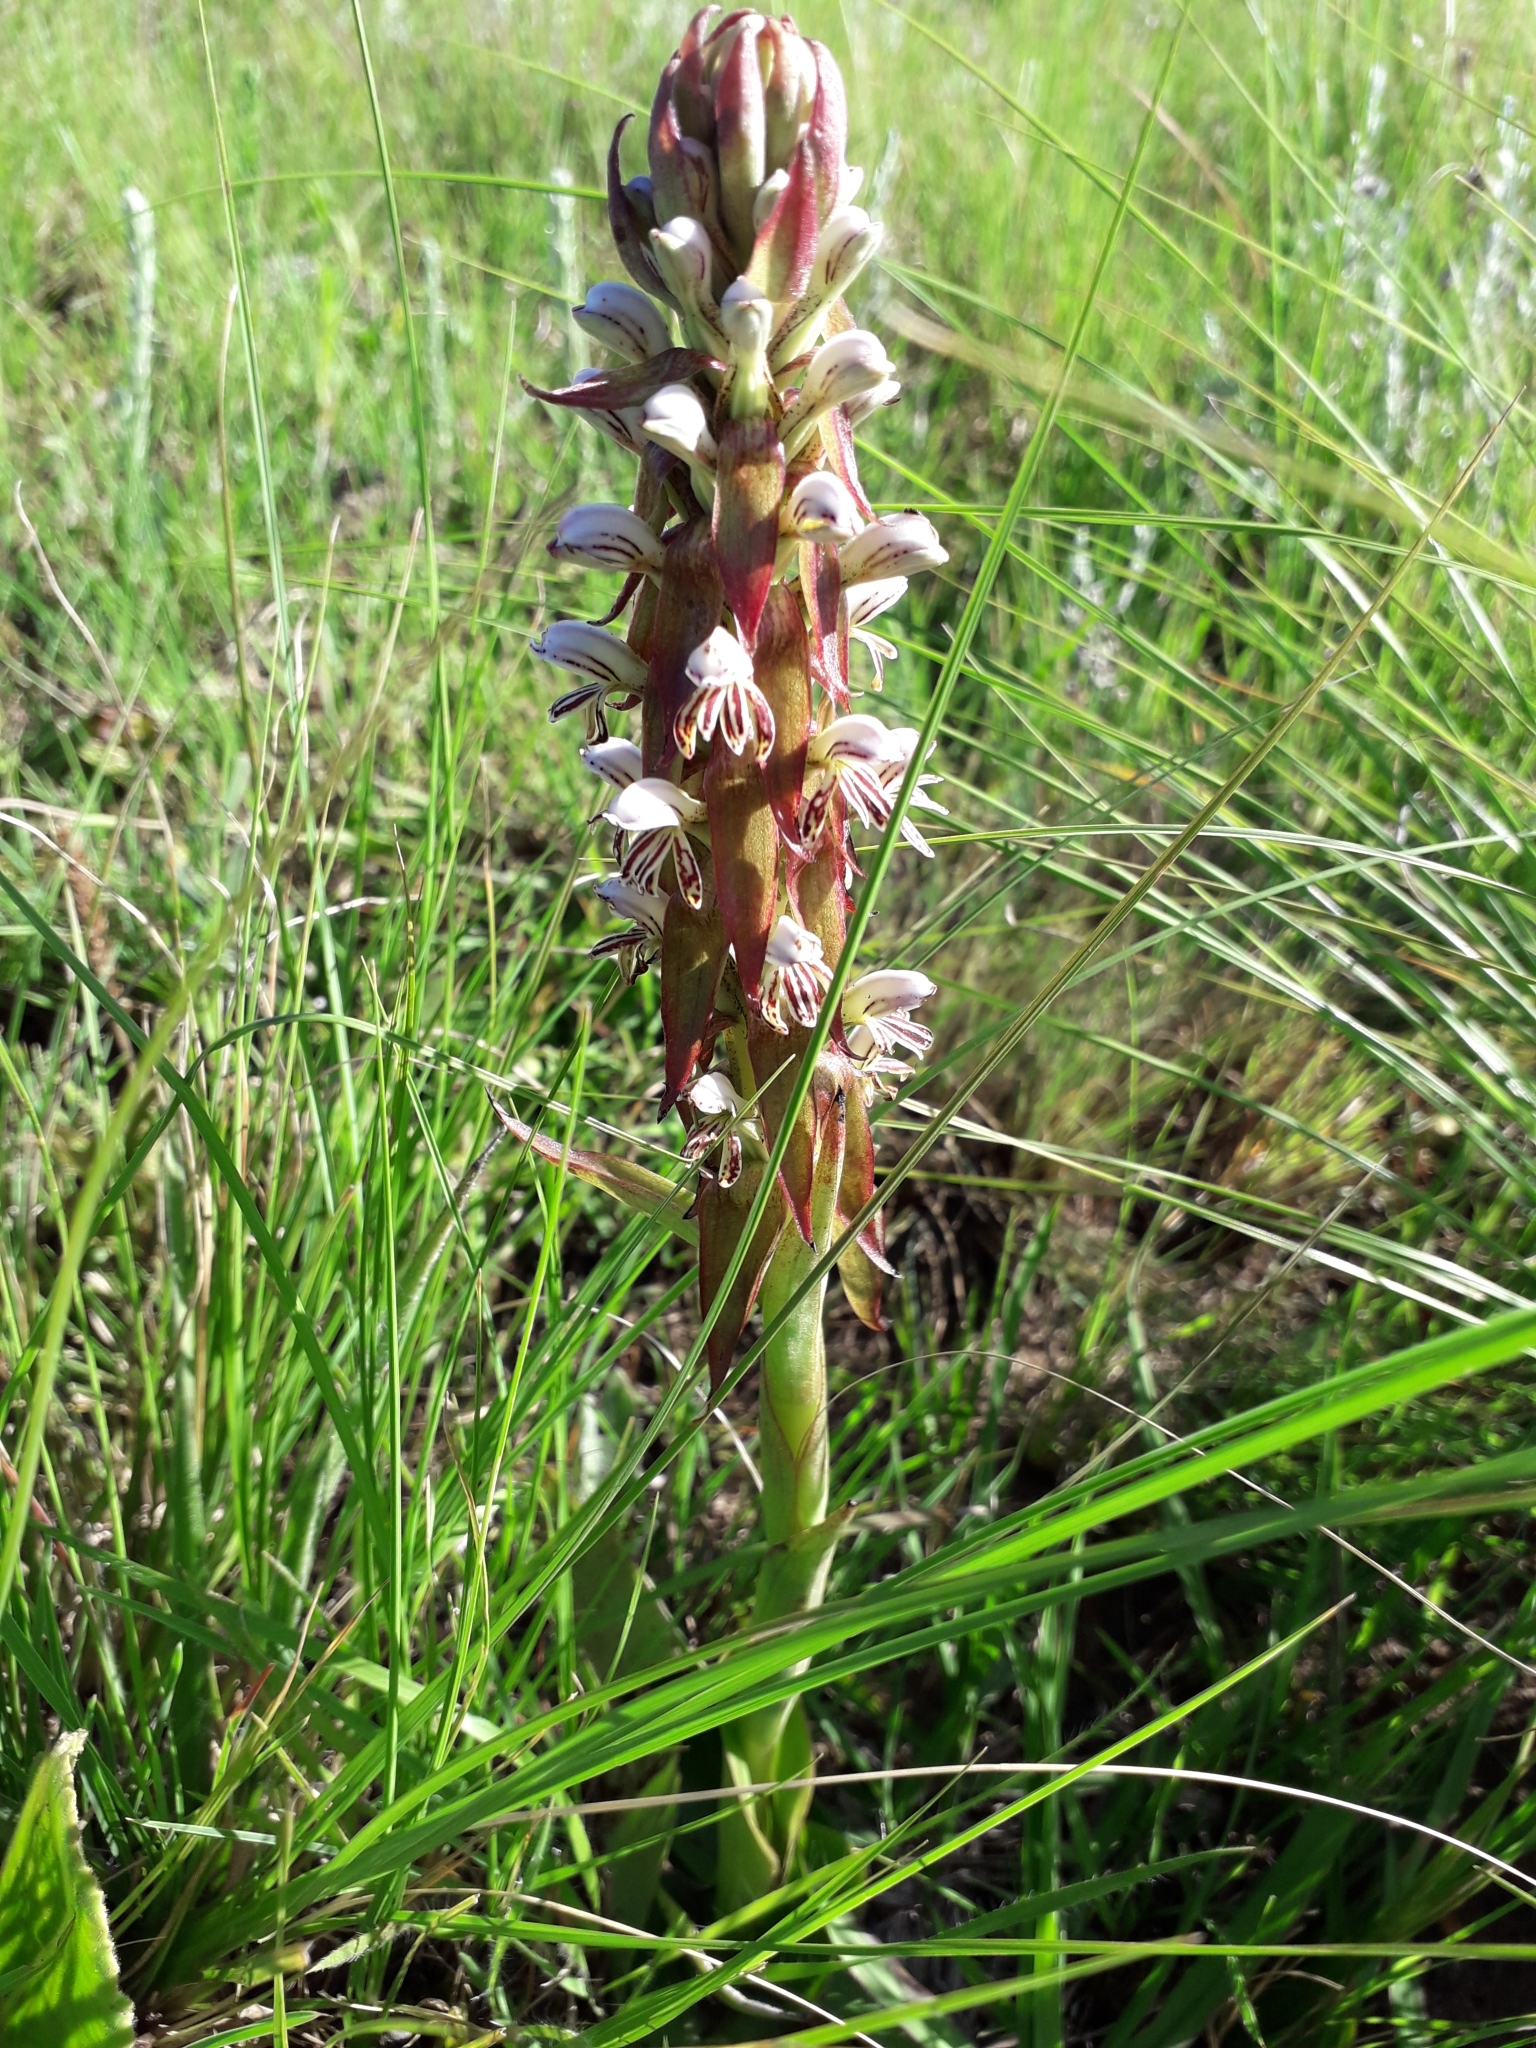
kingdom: Plantae
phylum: Tracheophyta
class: Liliopsida
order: Asparagales
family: Orchidaceae
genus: Satyrium
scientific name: Satyrium cristatum
